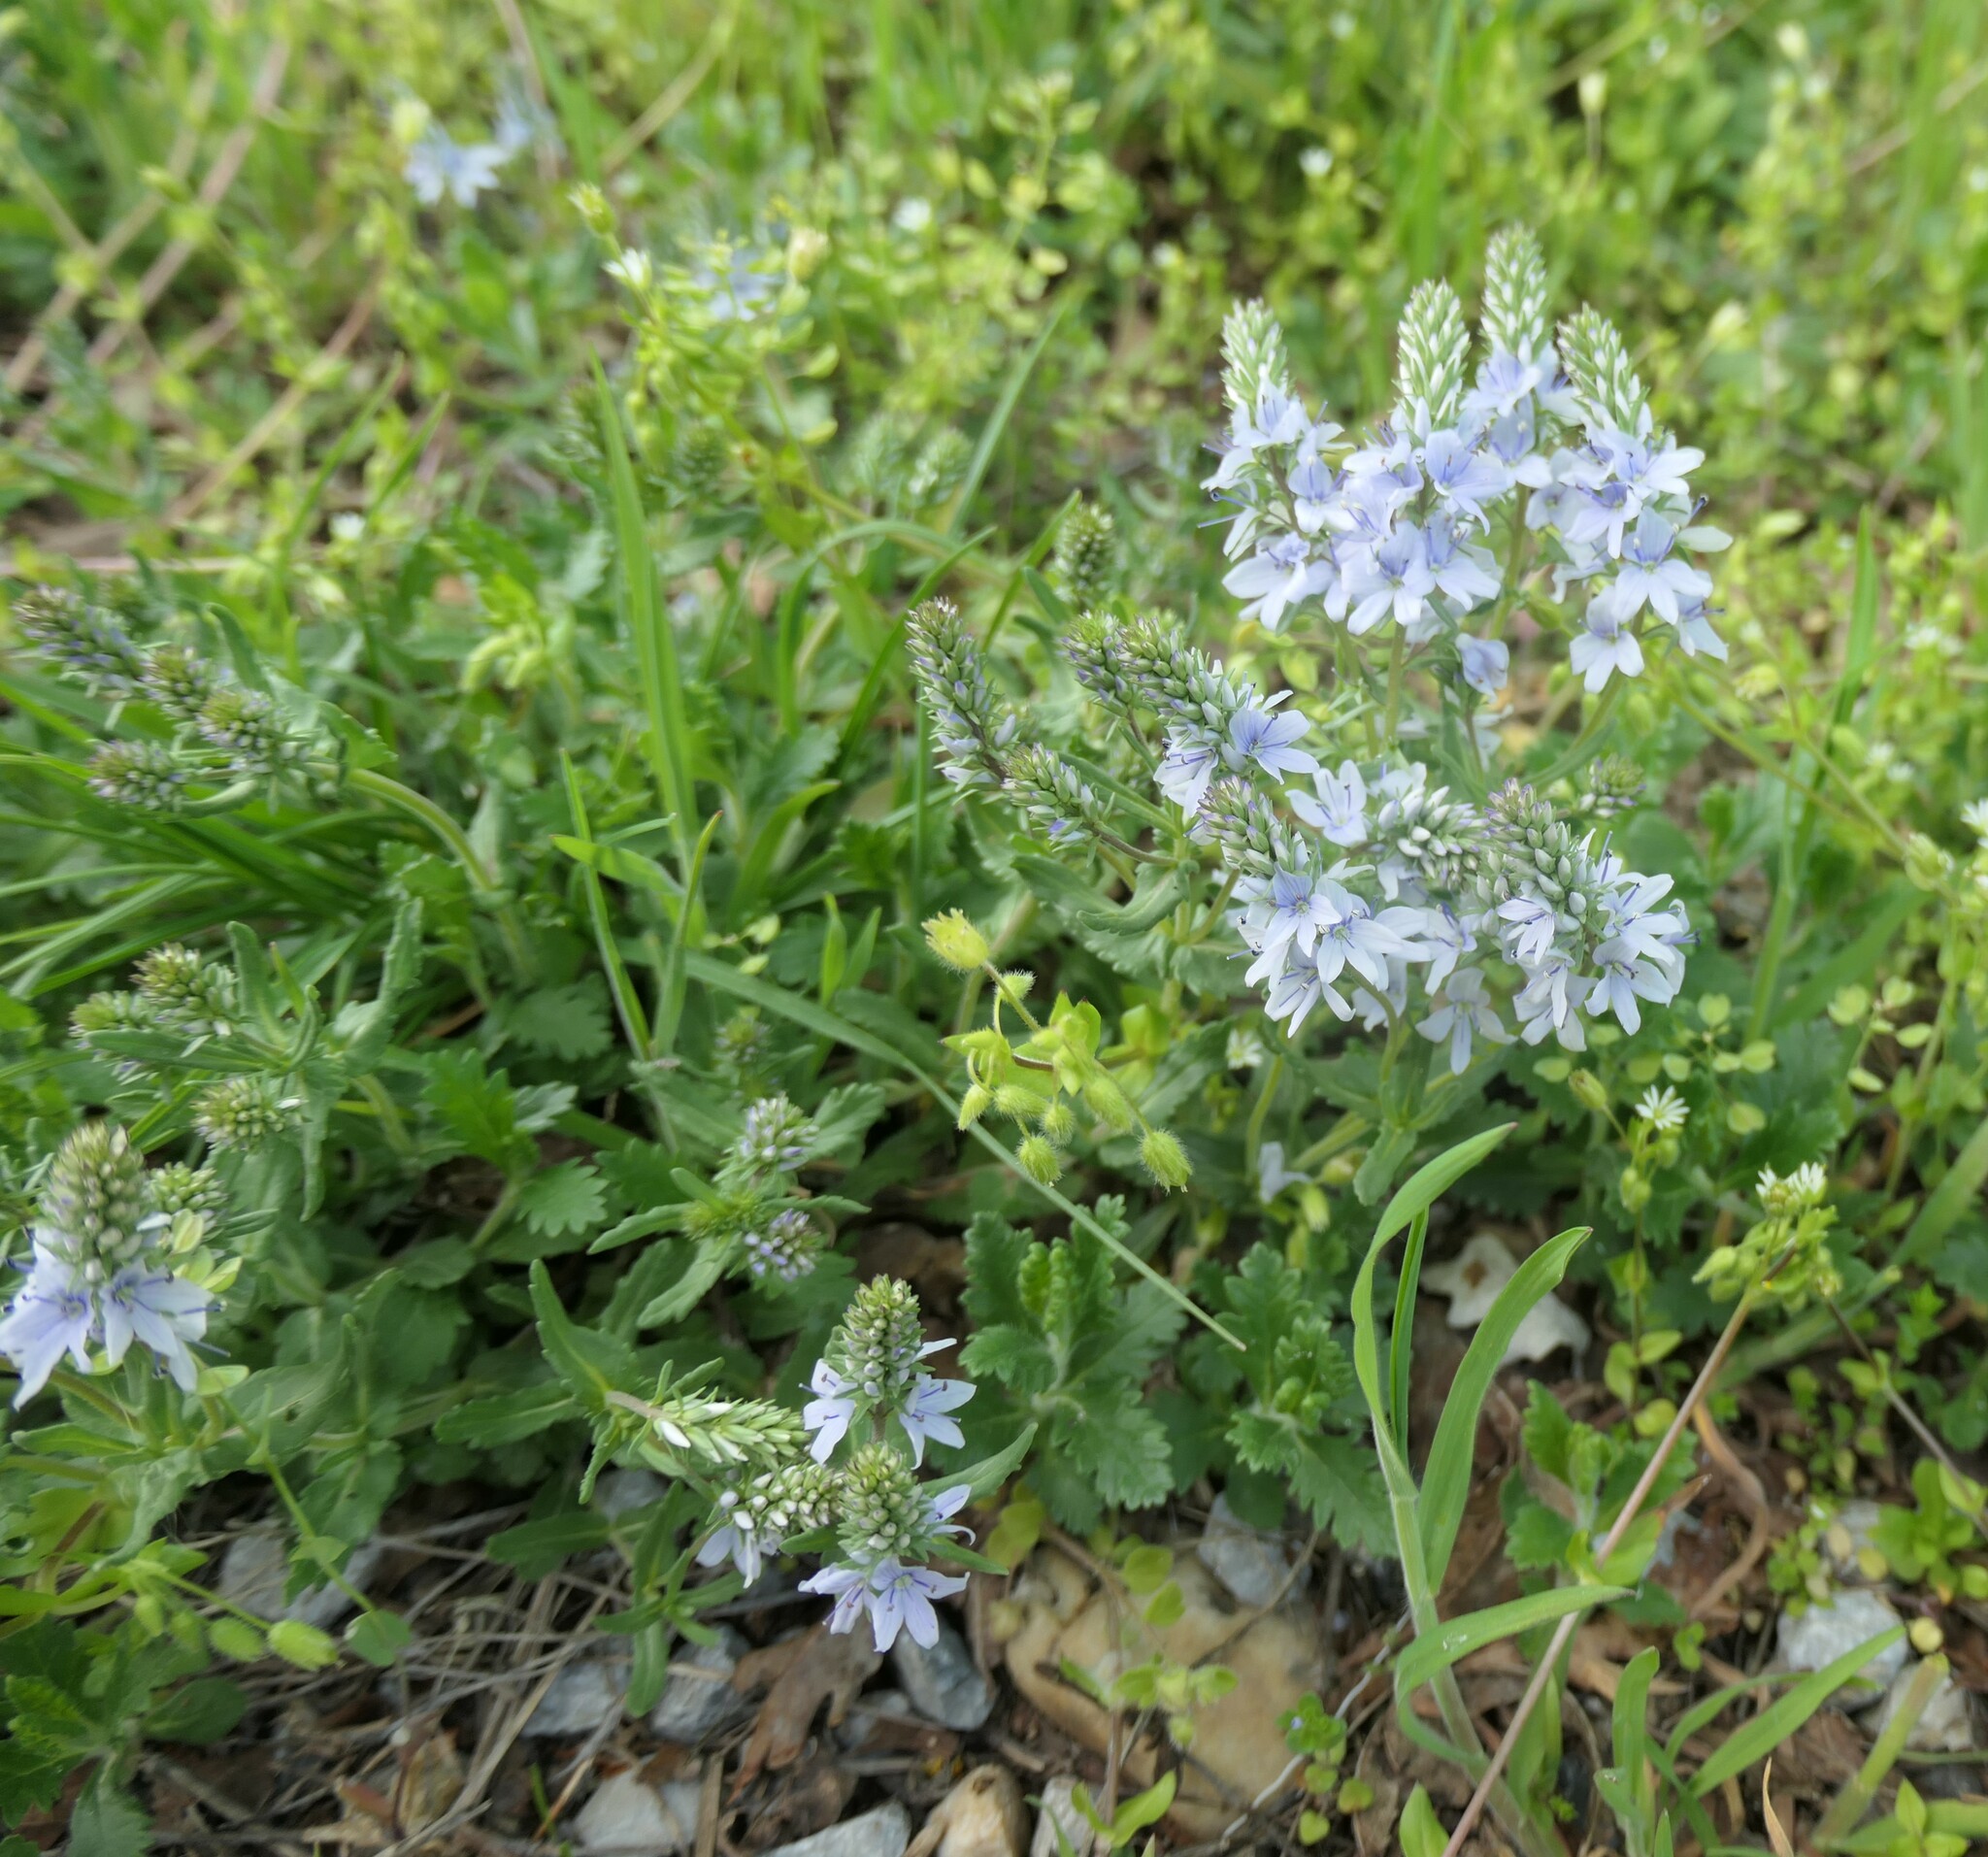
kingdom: Plantae
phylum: Tracheophyta
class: Magnoliopsida
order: Lamiales
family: Plantaginaceae
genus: Veronica
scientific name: Veronica prostrata
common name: Prostrate speedwell
